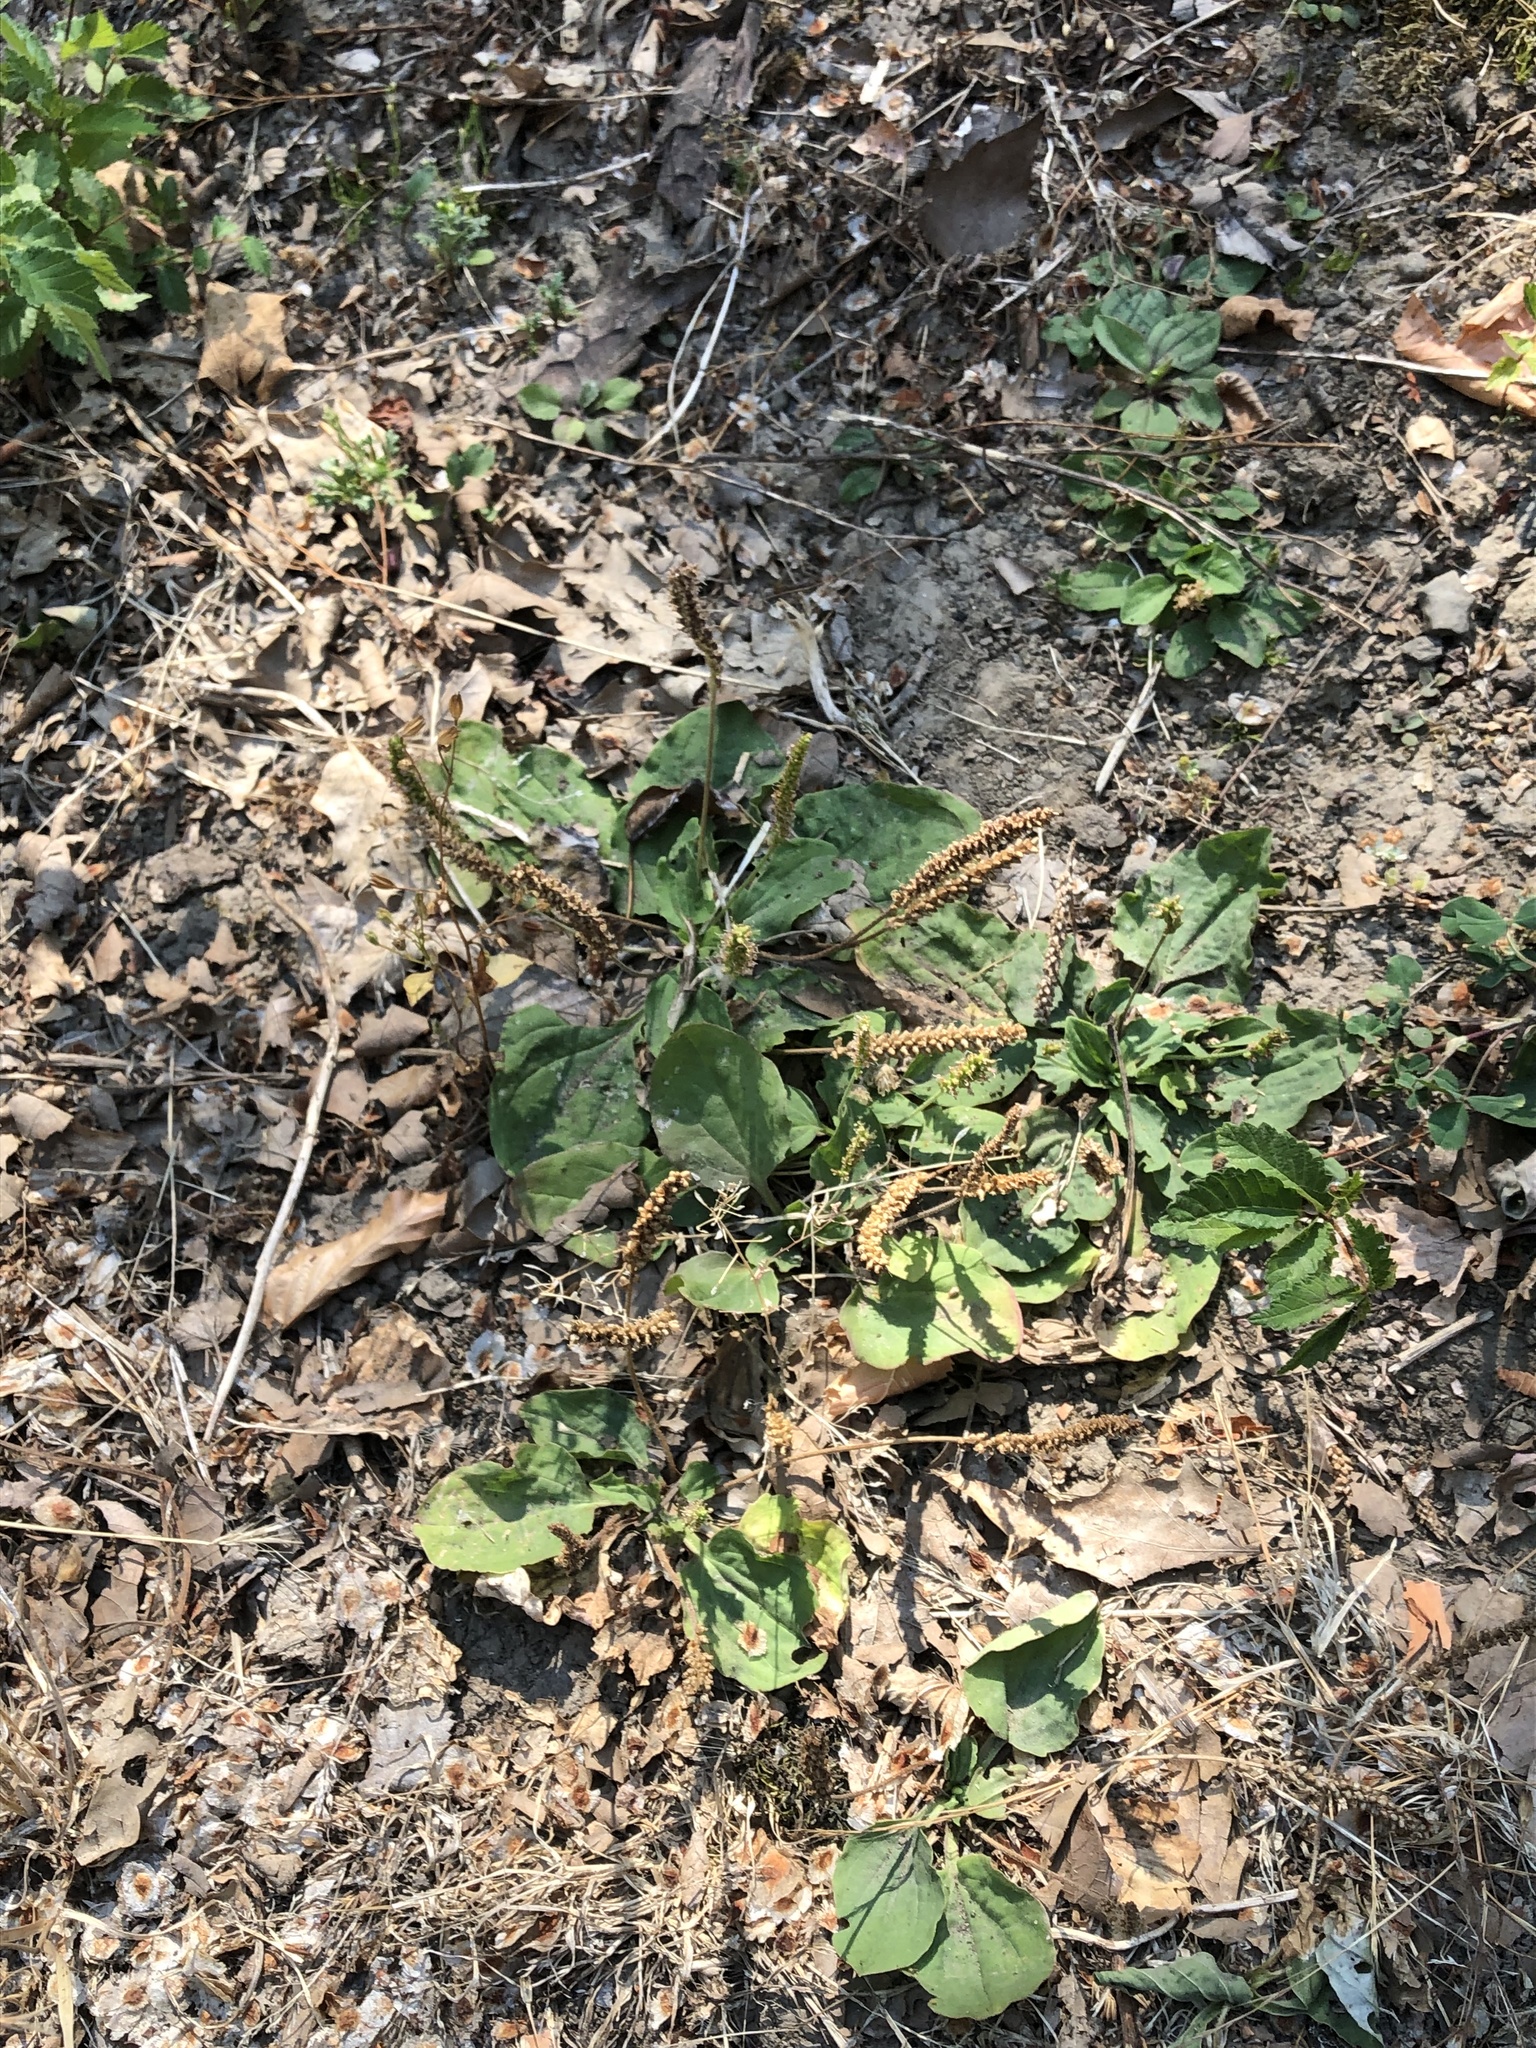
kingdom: Plantae
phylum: Tracheophyta
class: Magnoliopsida
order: Lamiales
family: Plantaginaceae
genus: Plantago
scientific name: Plantago major
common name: Common plantain
